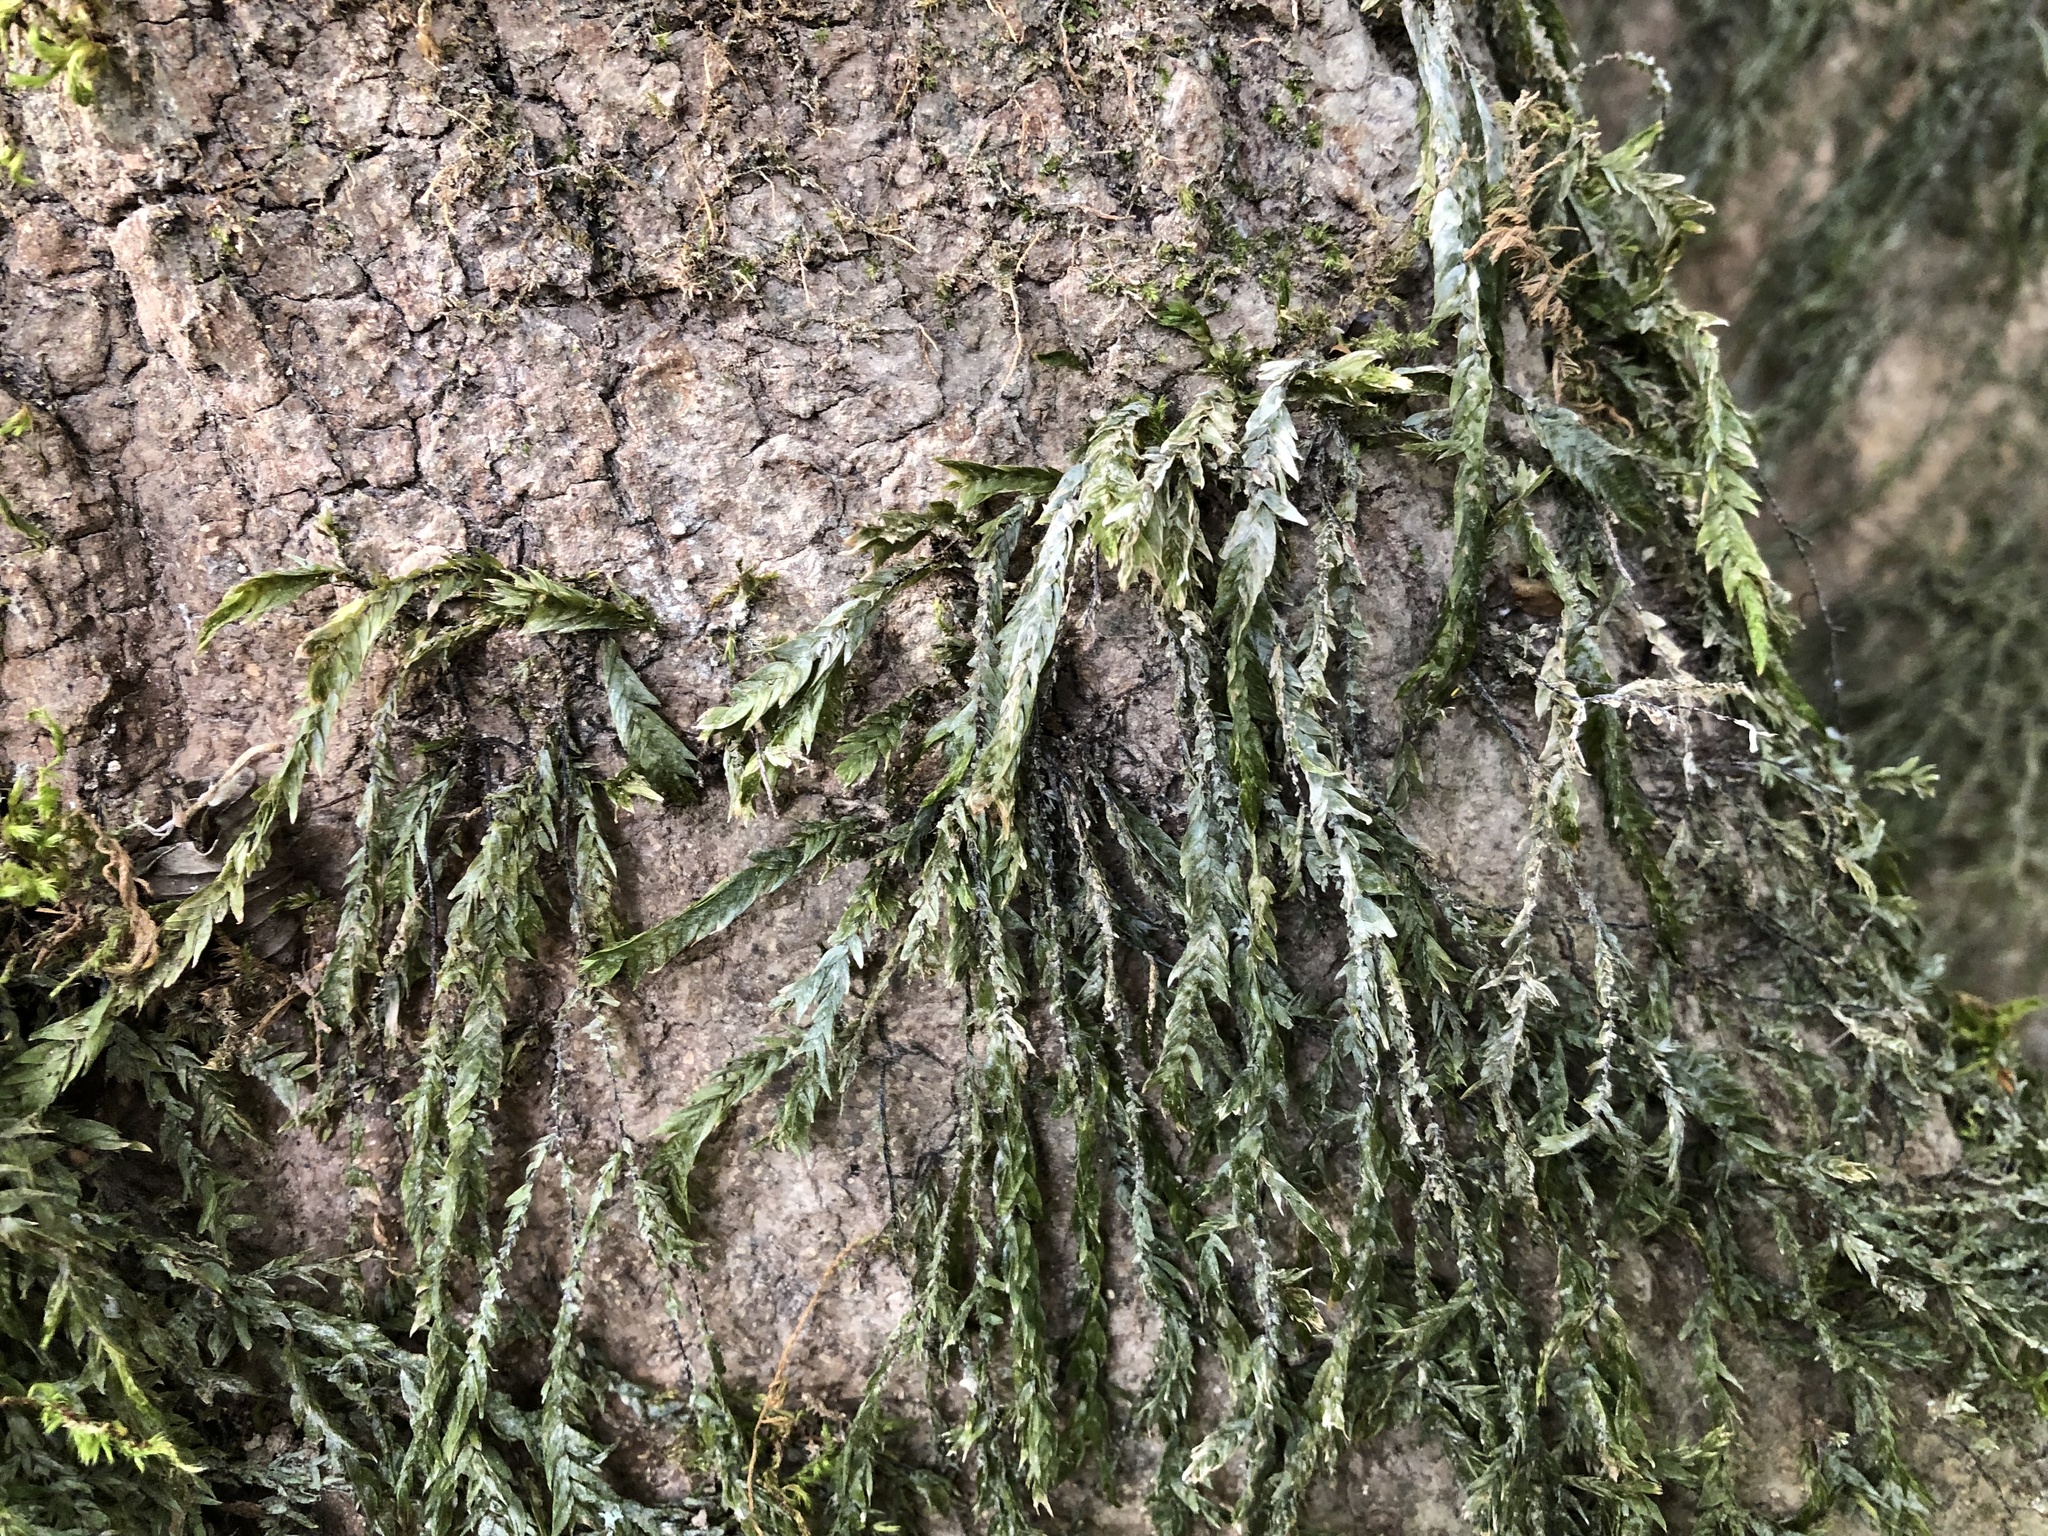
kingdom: Plantae
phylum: Bryophyta
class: Bryopsida
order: Hypnales
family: Fontinalaceae
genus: Fontinalis
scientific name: Fontinalis antipyretica
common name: Greater water-moss
